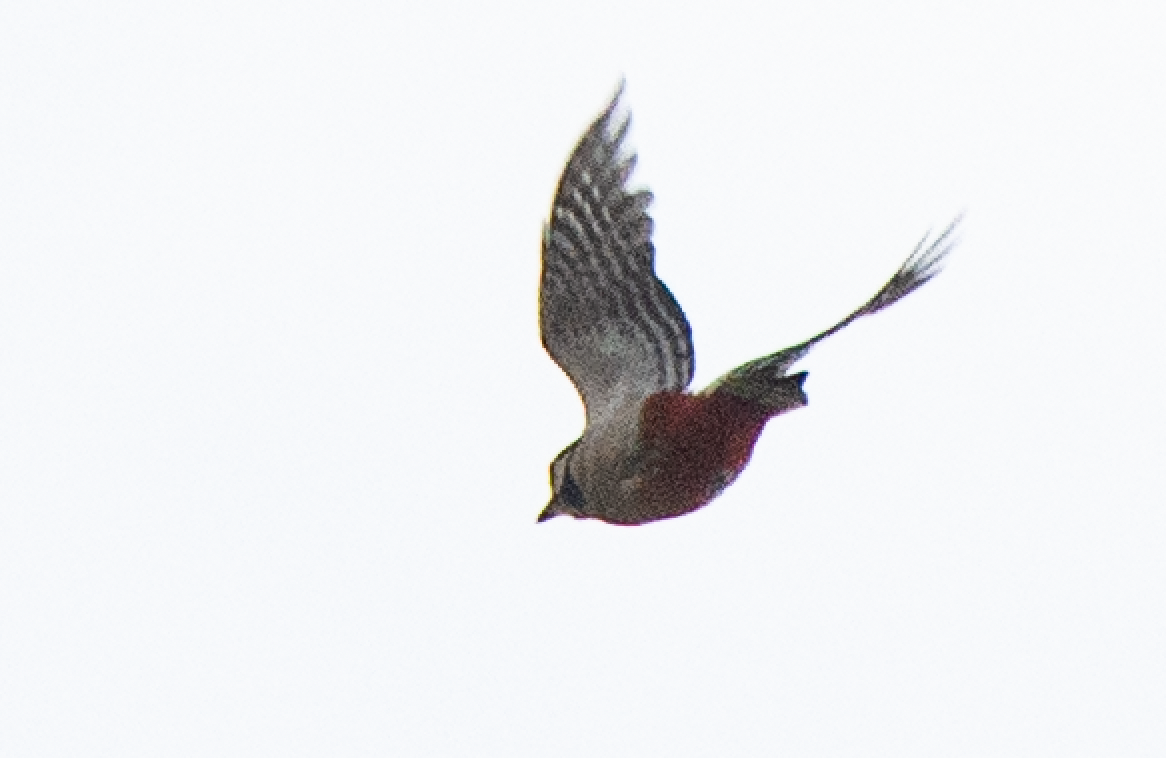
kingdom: Animalia
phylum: Chordata
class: Aves
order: Piciformes
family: Picidae
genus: Dendrocopos
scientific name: Dendrocopos major
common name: Great spotted woodpecker
